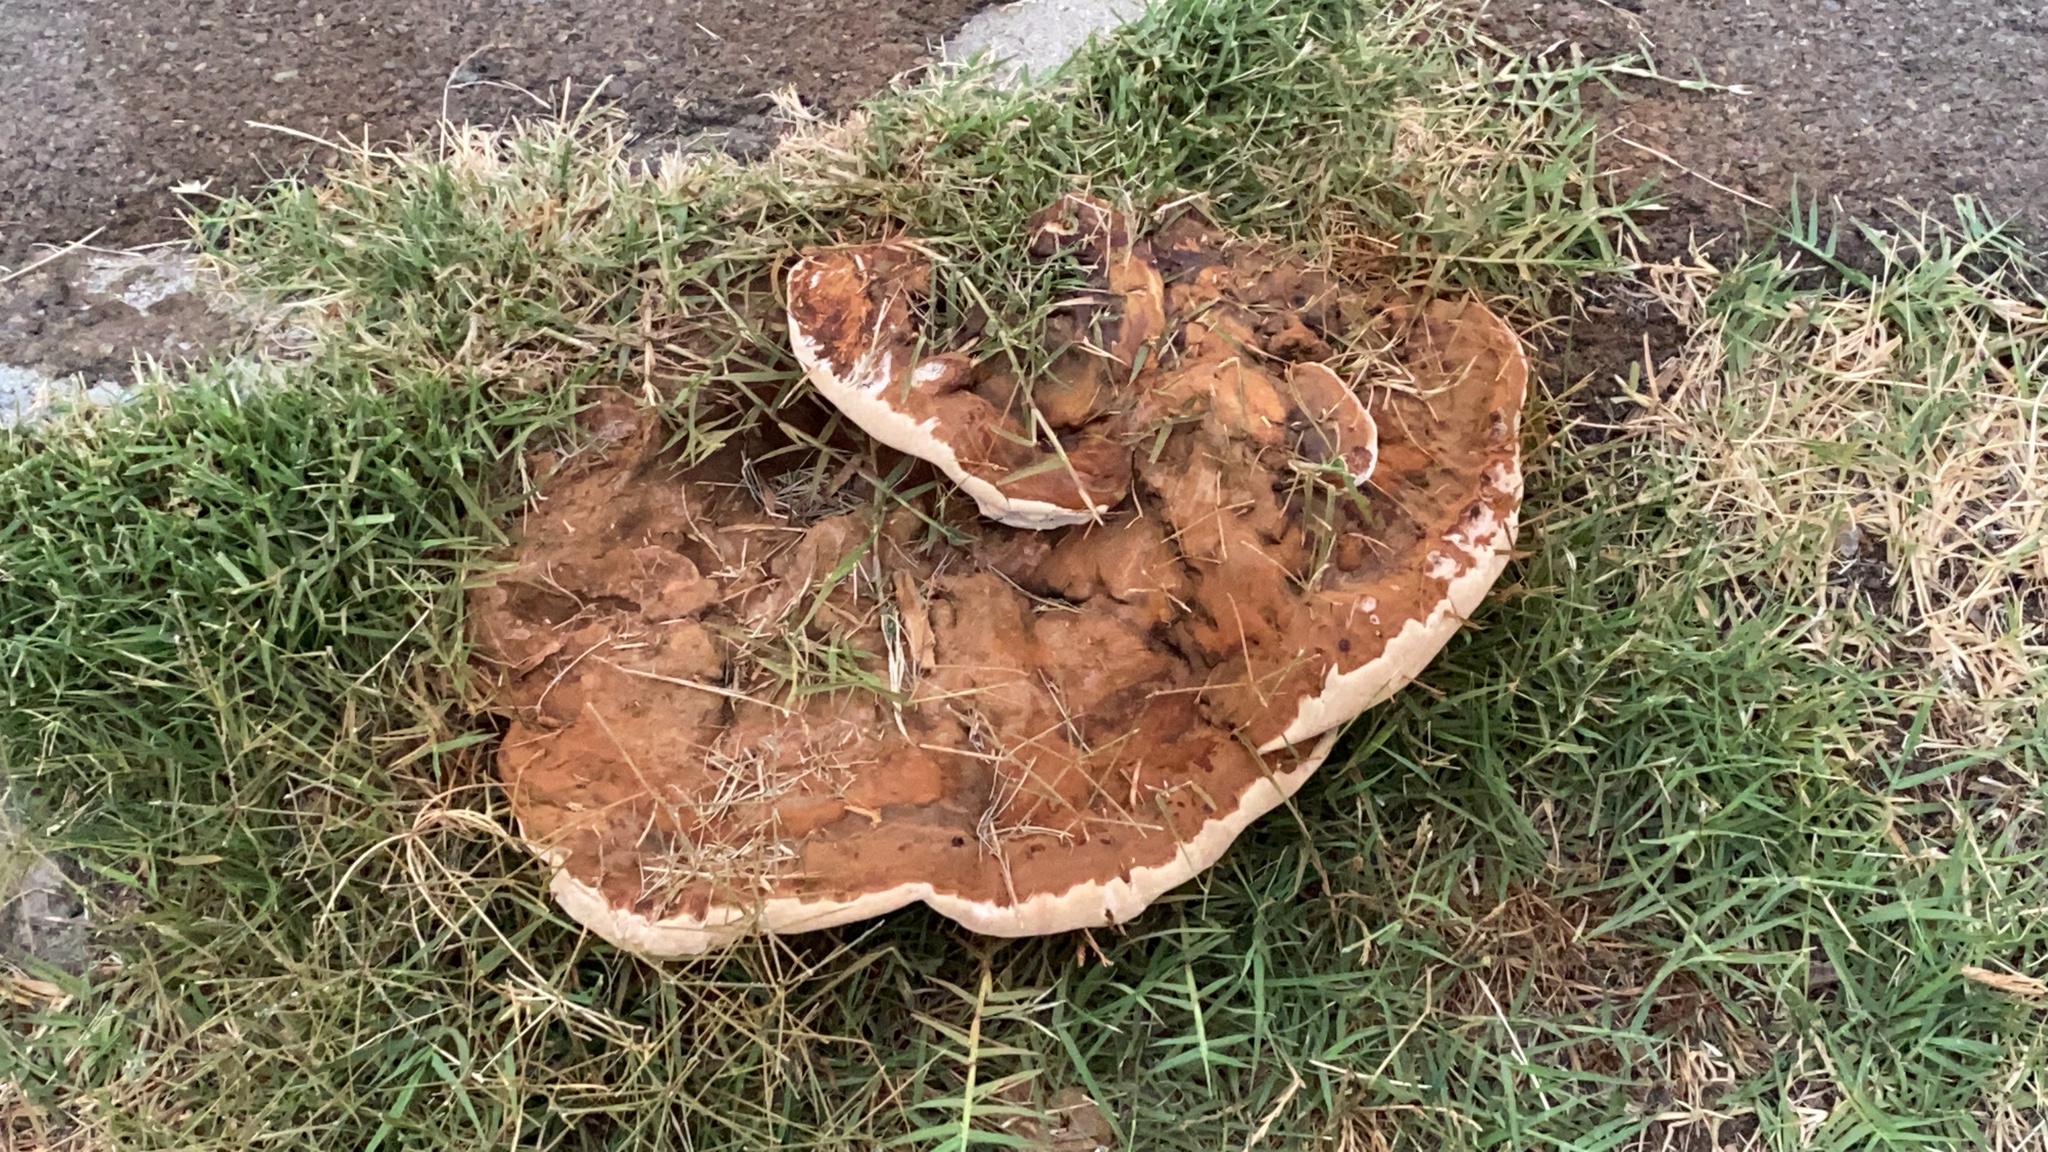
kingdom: Fungi
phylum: Basidiomycota
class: Agaricomycetes
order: Polyporales
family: Polyporaceae
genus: Ganoderma
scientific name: Ganoderma polychromum
